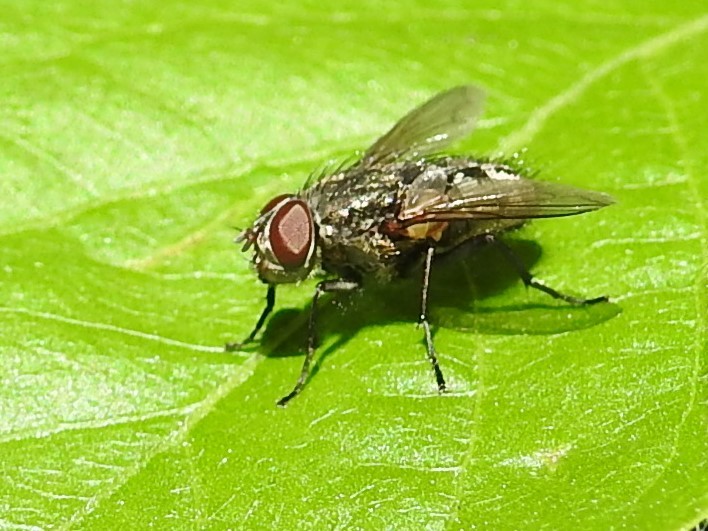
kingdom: Animalia
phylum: Arthropoda
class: Insecta
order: Diptera
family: Polleniidae
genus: Pollenia
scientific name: Pollenia
